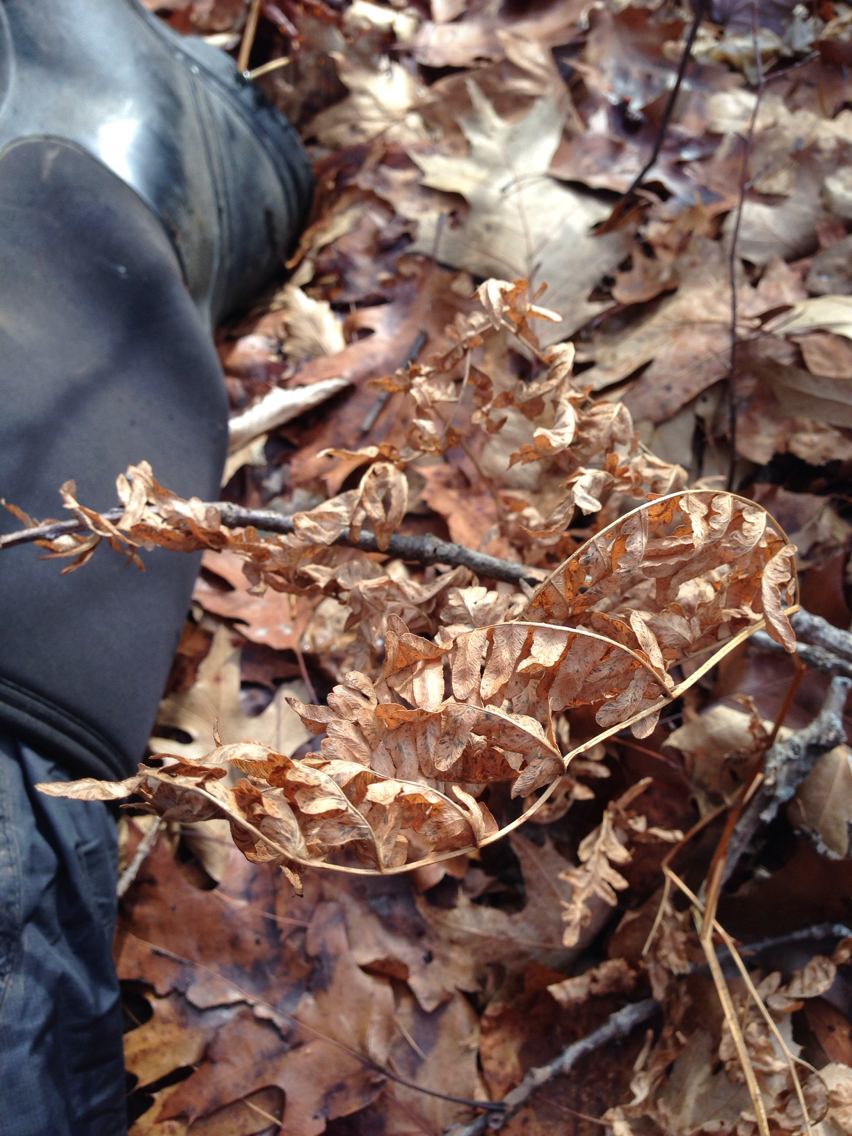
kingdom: Plantae
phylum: Tracheophyta
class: Polypodiopsida
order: Polypodiales
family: Dennstaedtiaceae
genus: Pteridium
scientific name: Pteridium aquilinum
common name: Bracken
